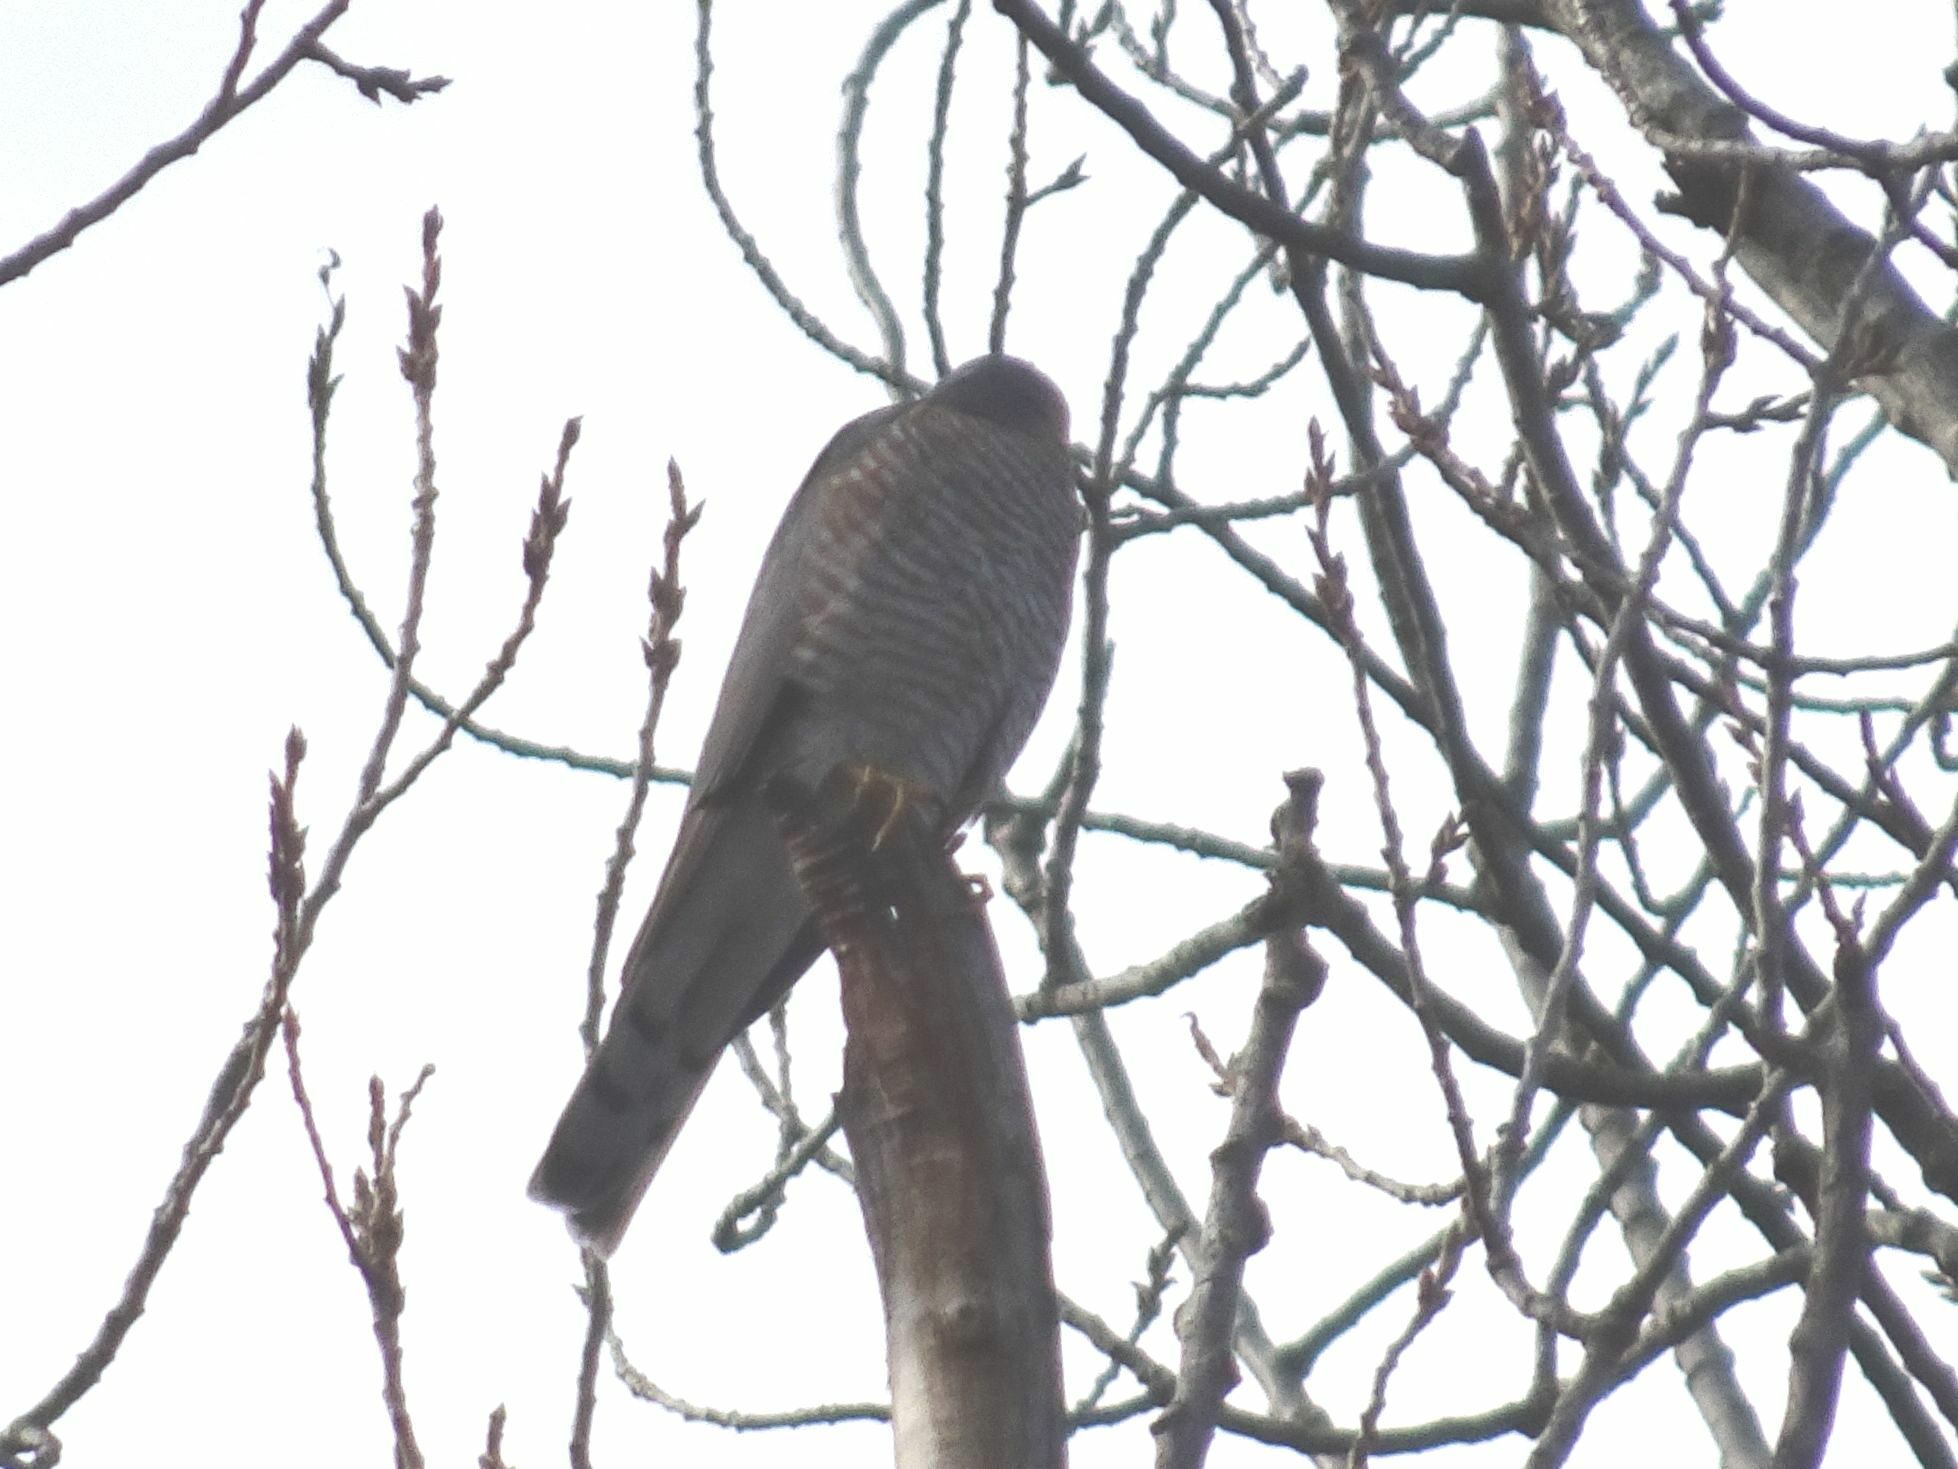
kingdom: Animalia
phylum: Chordata
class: Aves
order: Accipitriformes
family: Accipitridae
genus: Accipiter
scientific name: Accipiter nisus
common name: Eurasian sparrowhawk
